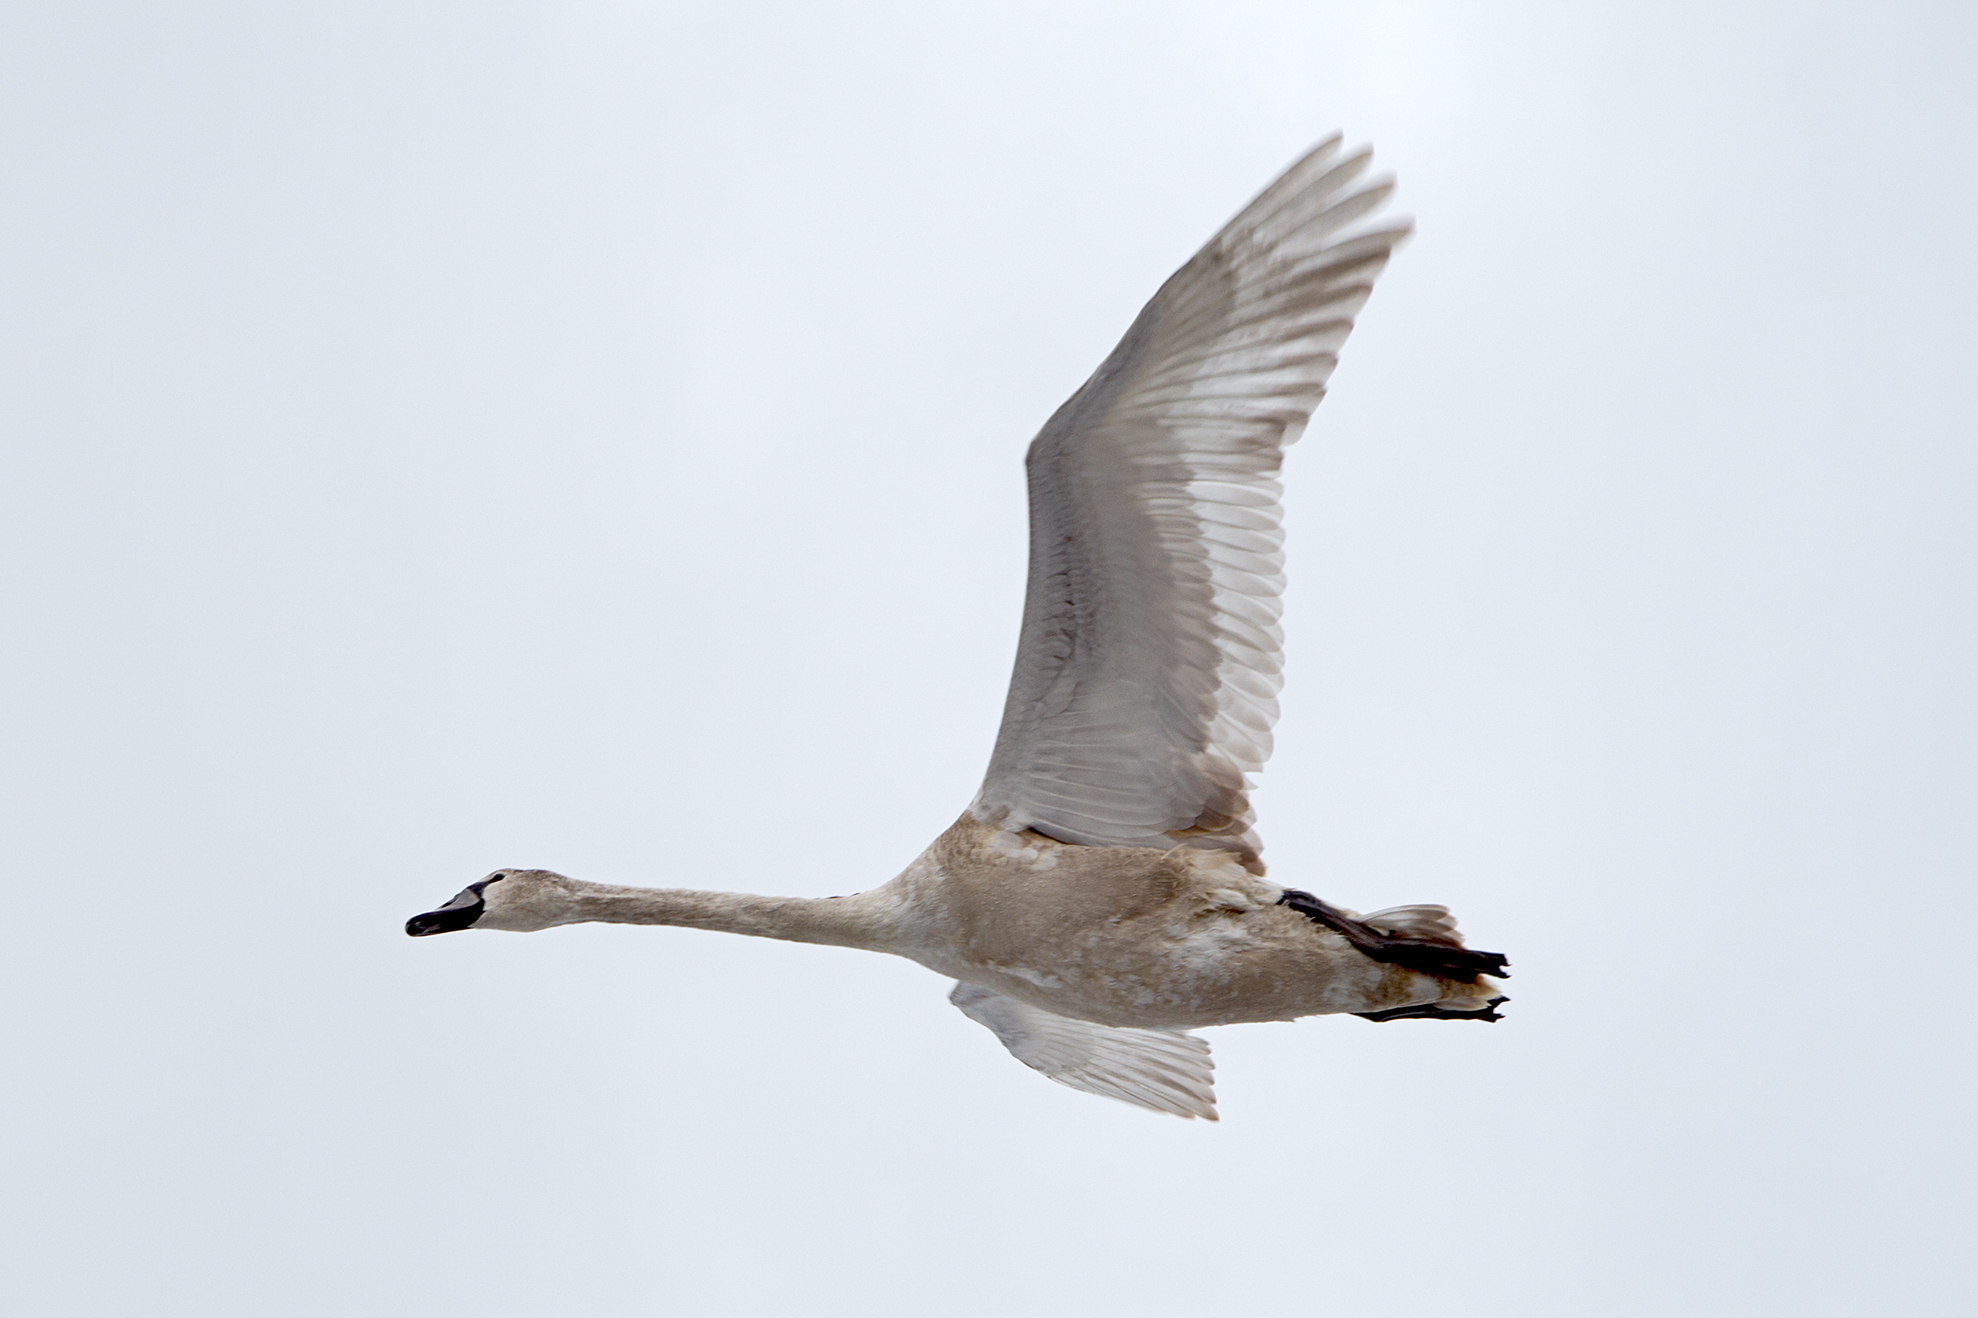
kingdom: Animalia
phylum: Chordata
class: Aves
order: Anseriformes
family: Anatidae
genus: Cygnus
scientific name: Cygnus olor
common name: Mute swan
